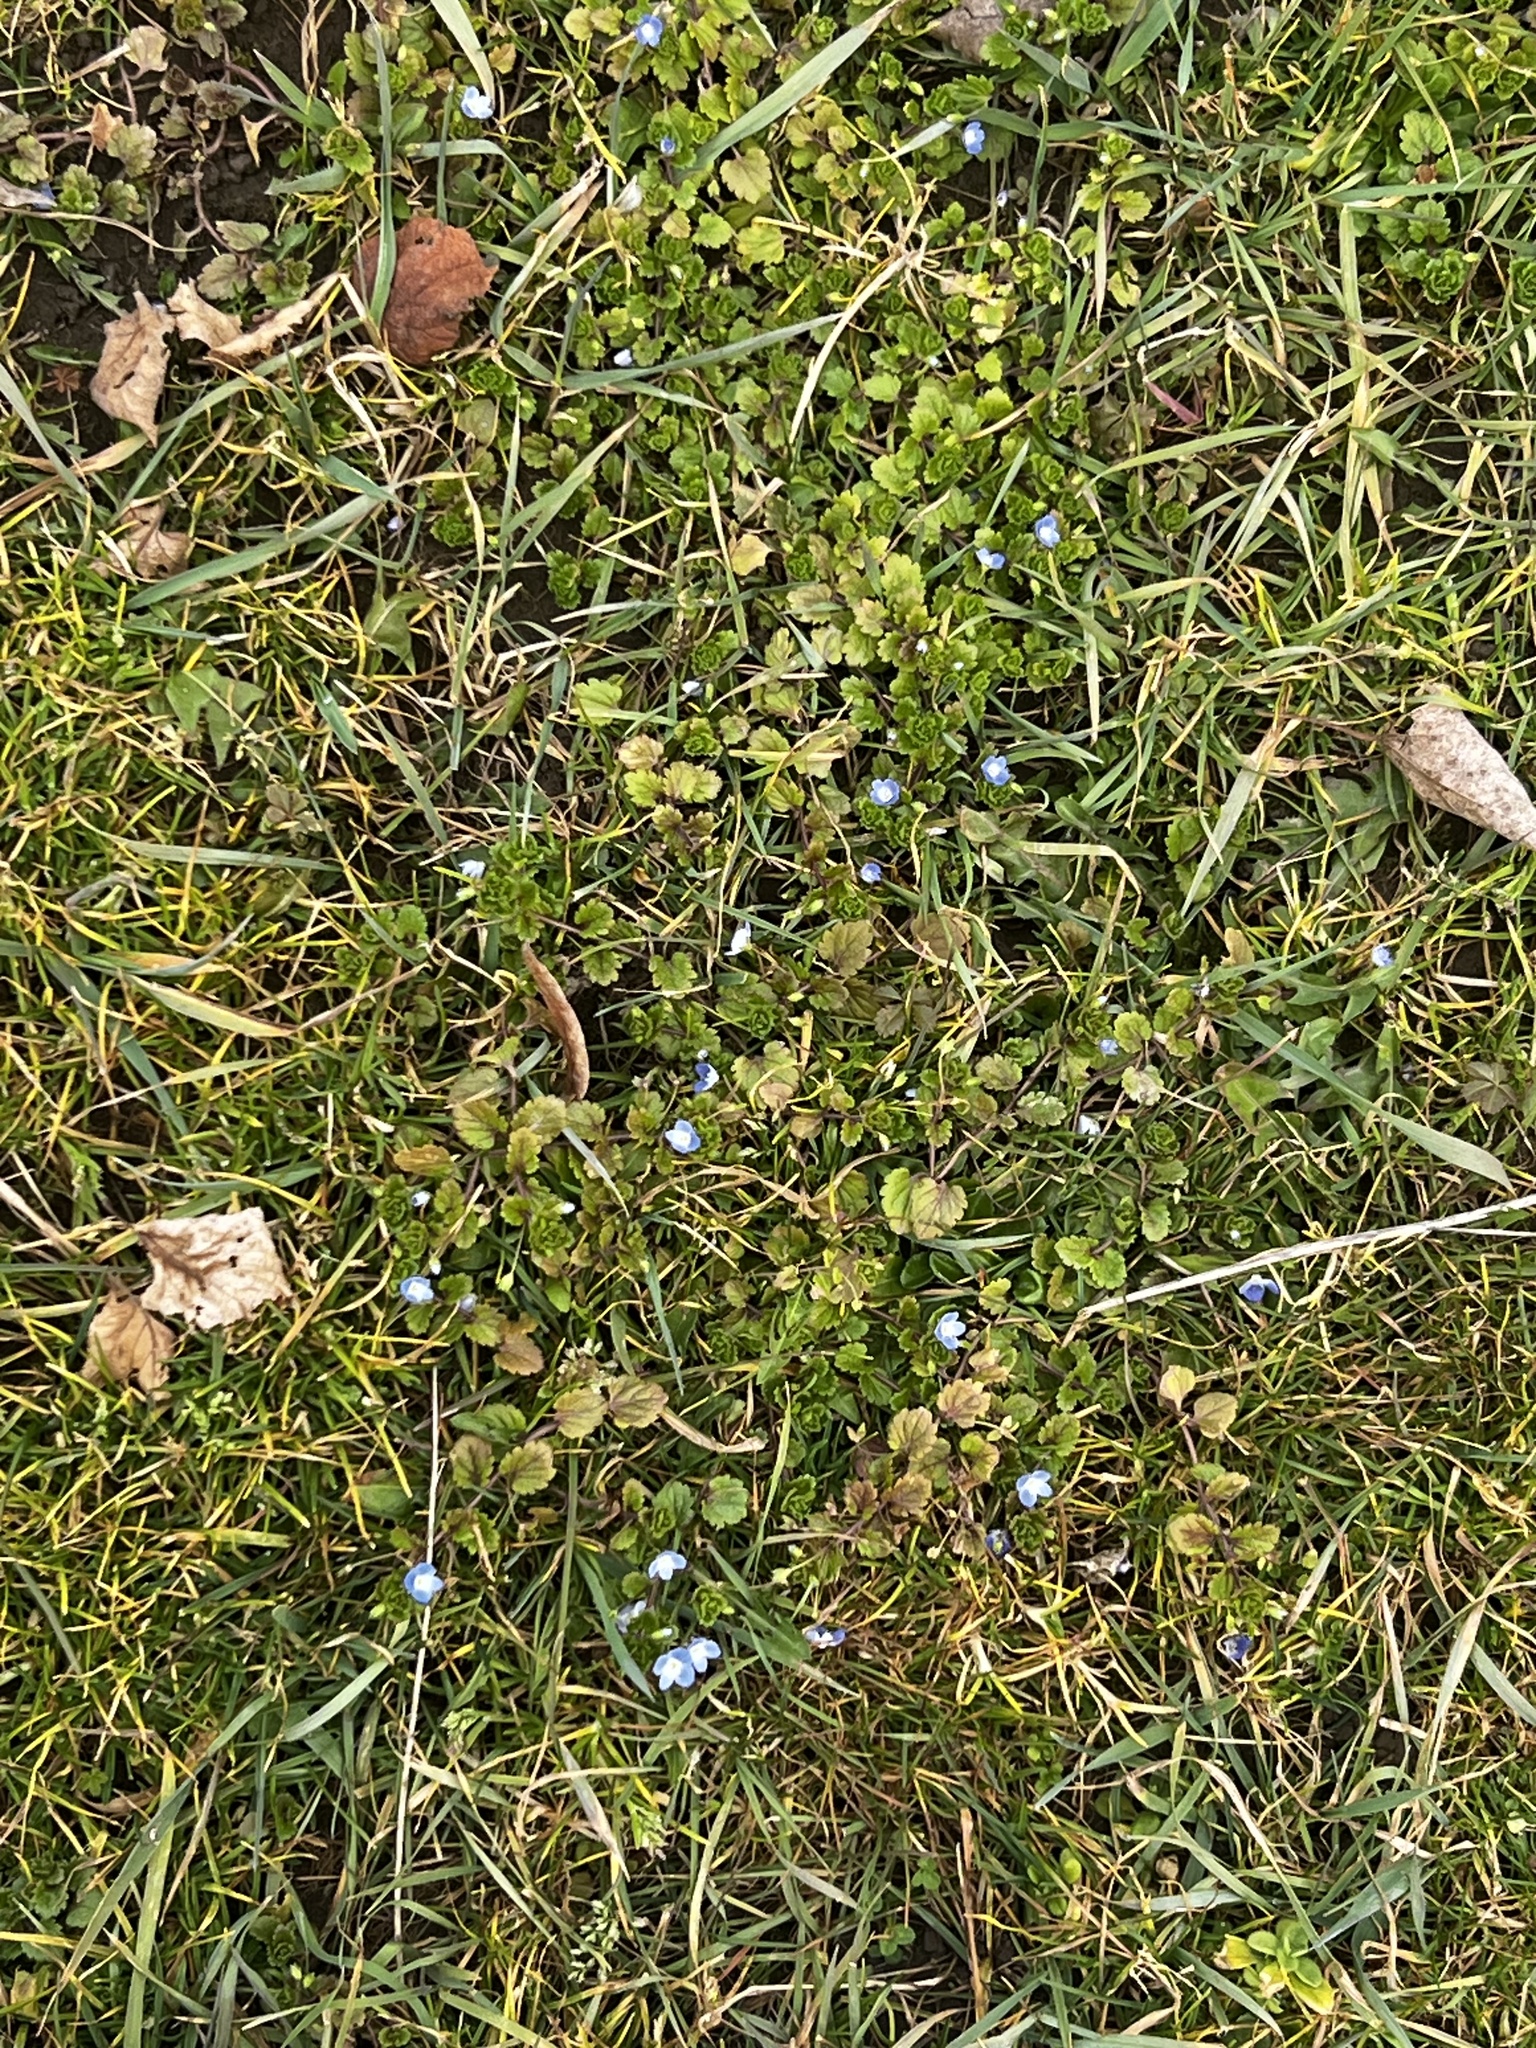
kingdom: Plantae
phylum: Tracheophyta
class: Magnoliopsida
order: Lamiales
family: Plantaginaceae
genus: Veronica
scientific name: Veronica persica
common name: Common field-speedwell
